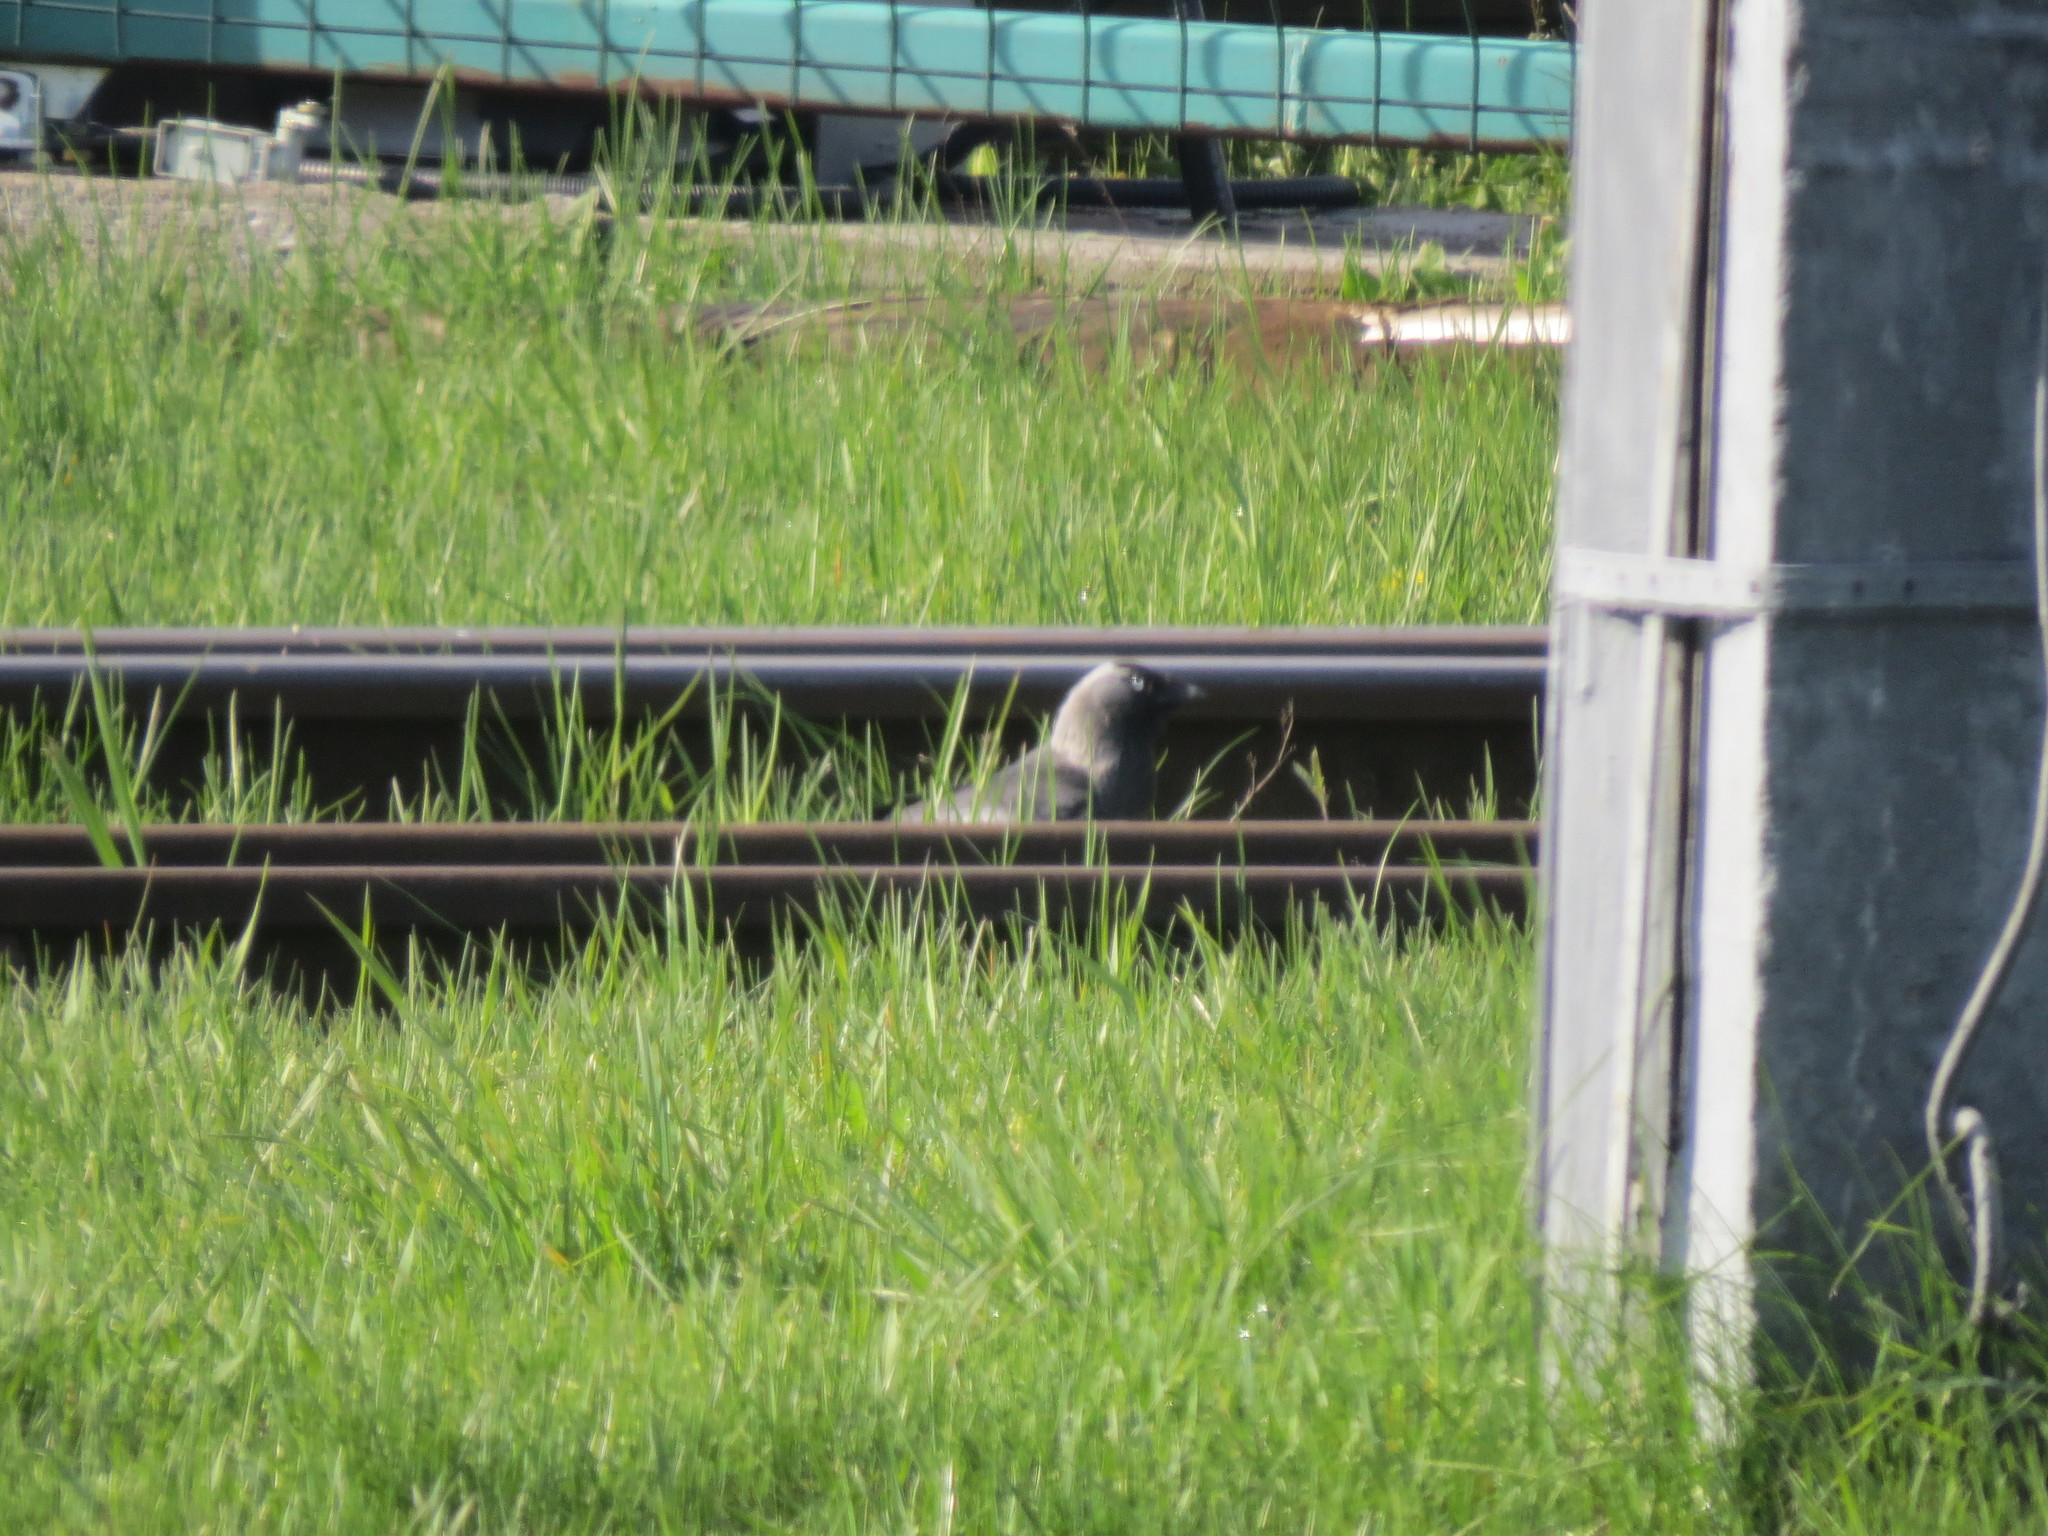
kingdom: Animalia
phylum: Chordata
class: Aves
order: Passeriformes
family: Corvidae
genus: Coloeus
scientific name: Coloeus monedula
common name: Western jackdaw
